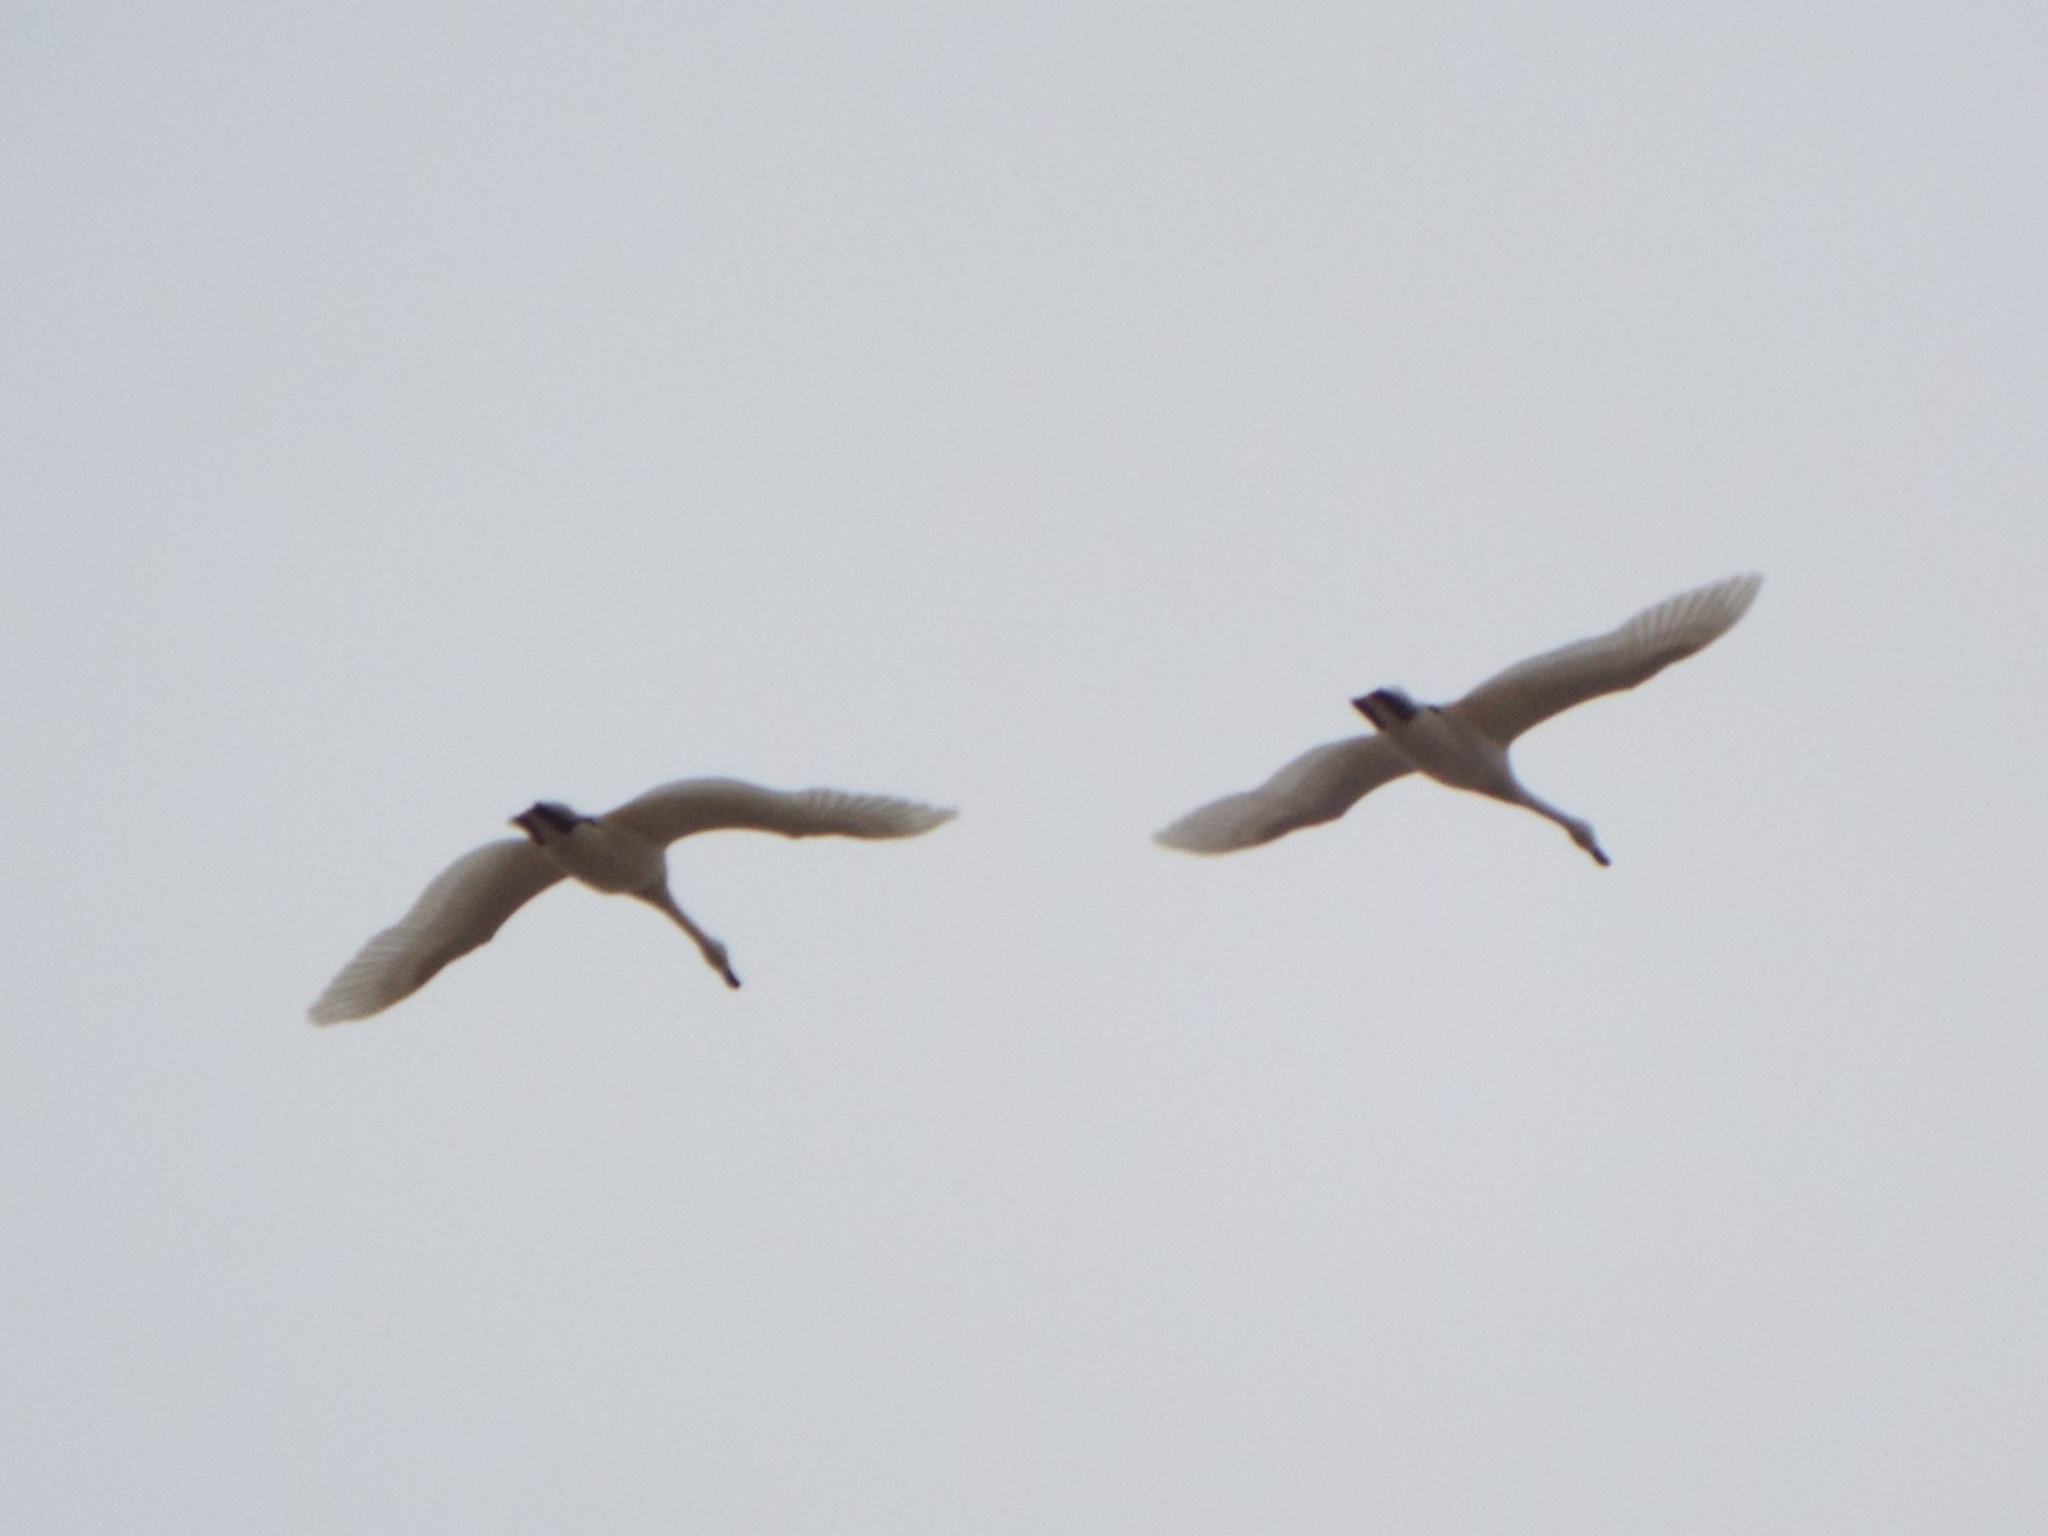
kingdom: Animalia
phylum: Chordata
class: Aves
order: Anseriformes
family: Anatidae
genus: Cygnus
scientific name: Cygnus columbianus
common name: Tundra swan
